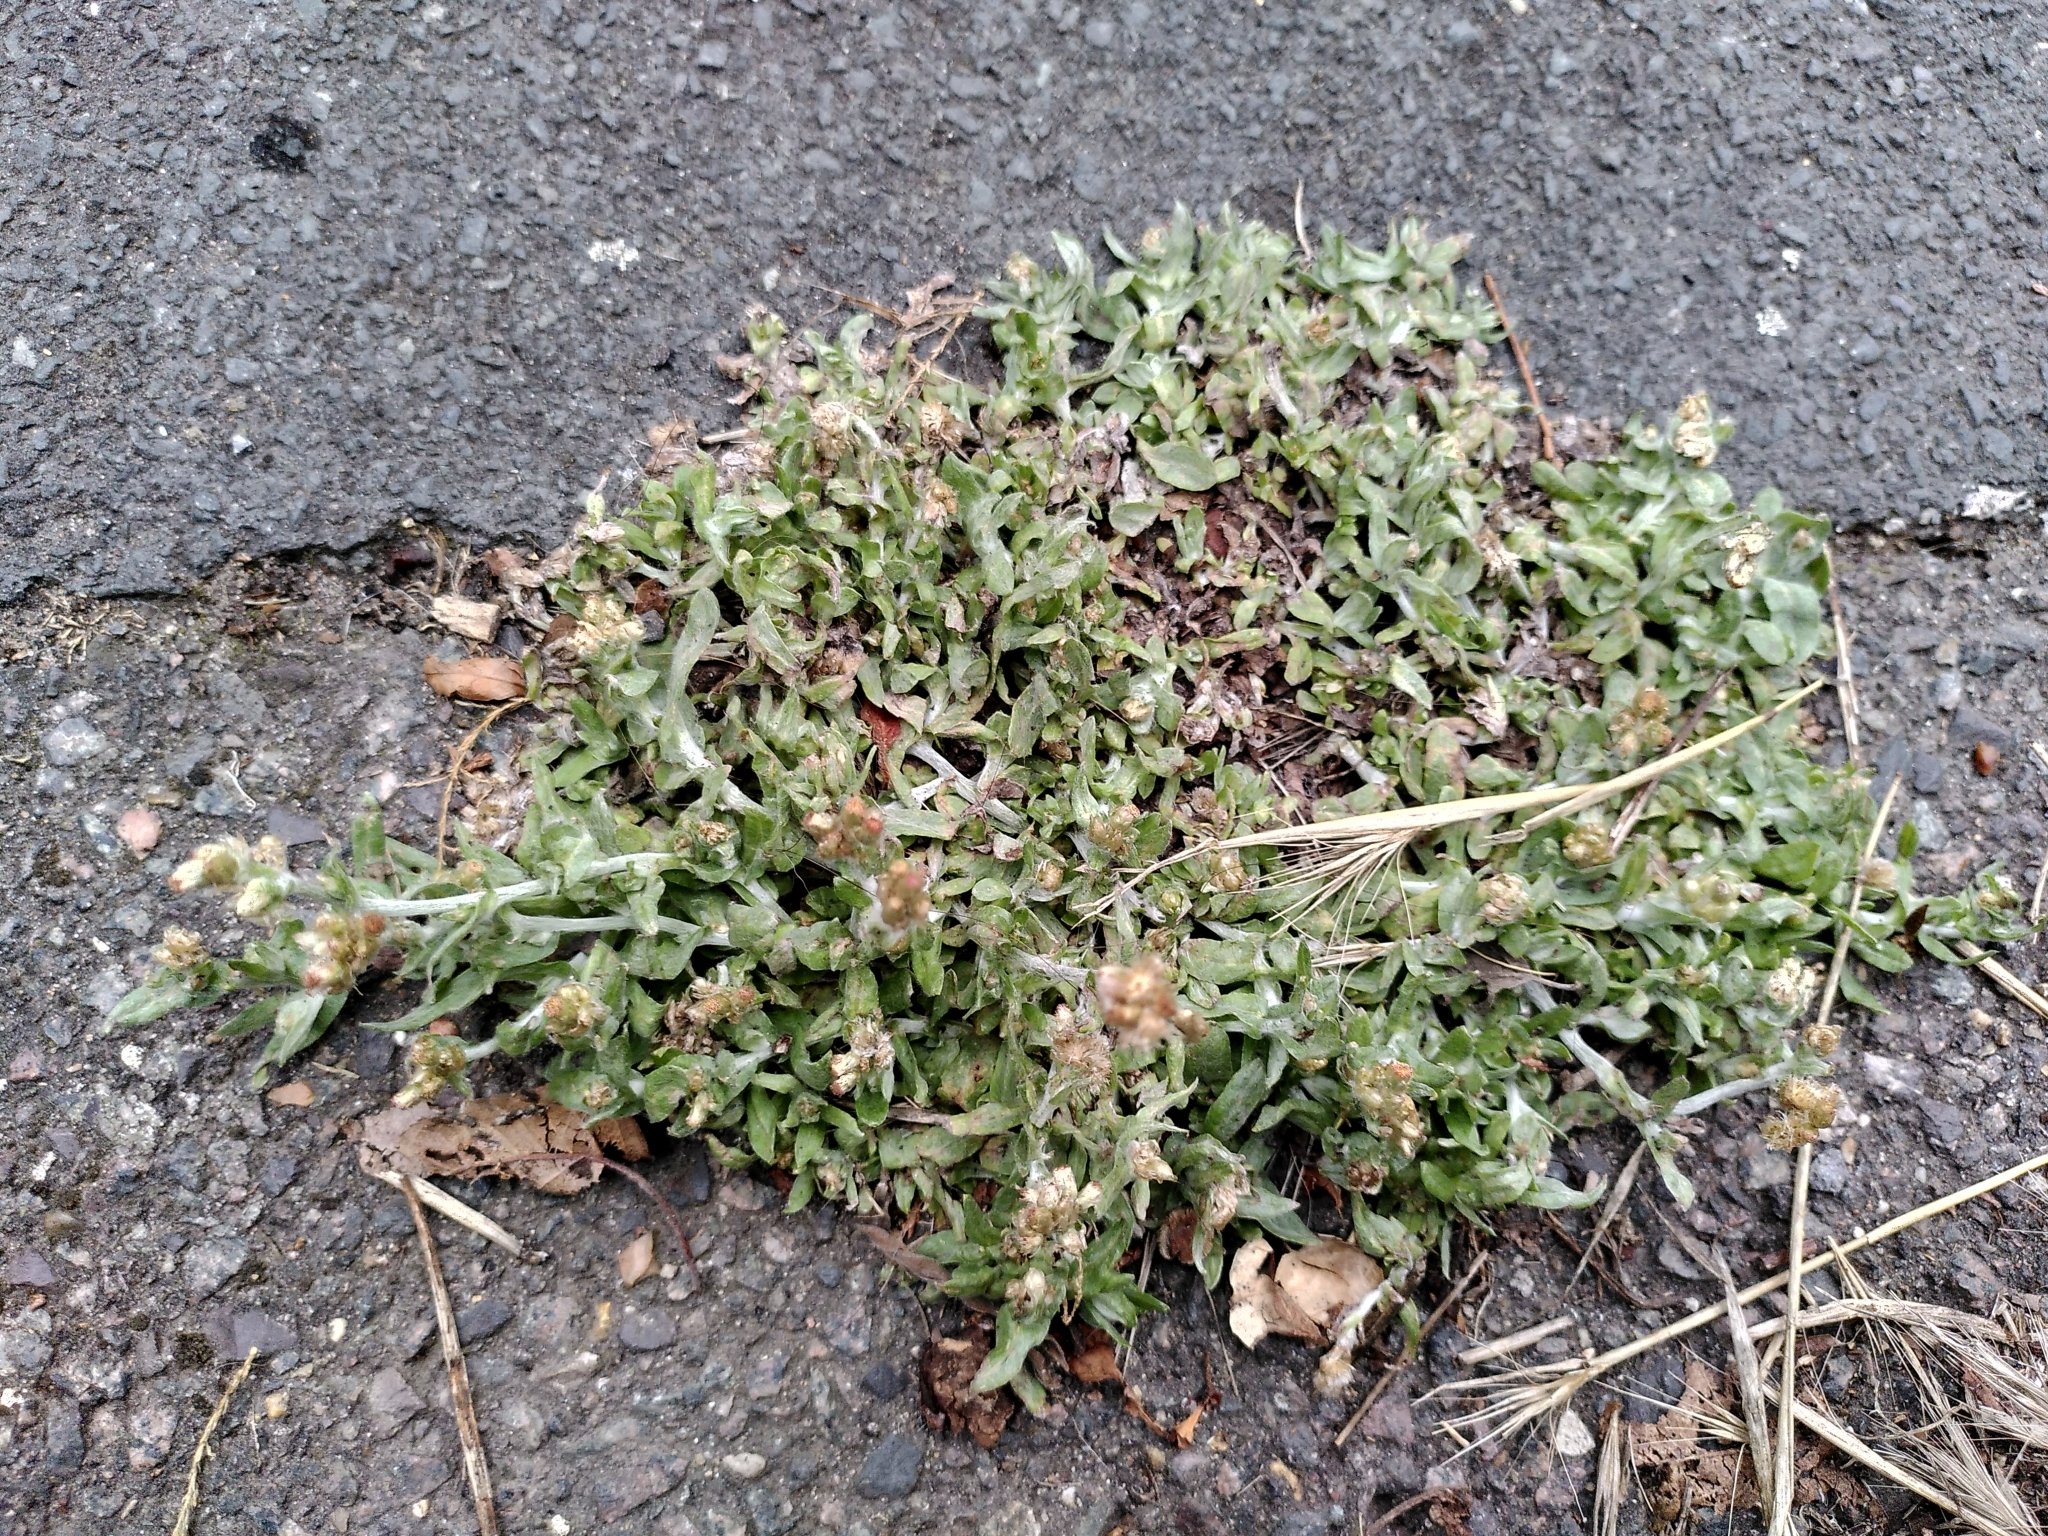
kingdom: Plantae
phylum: Tracheophyta
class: Magnoliopsida
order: Asterales
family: Asteraceae
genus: Helichrysum
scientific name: Helichrysum luteoalbum
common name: Daisy
